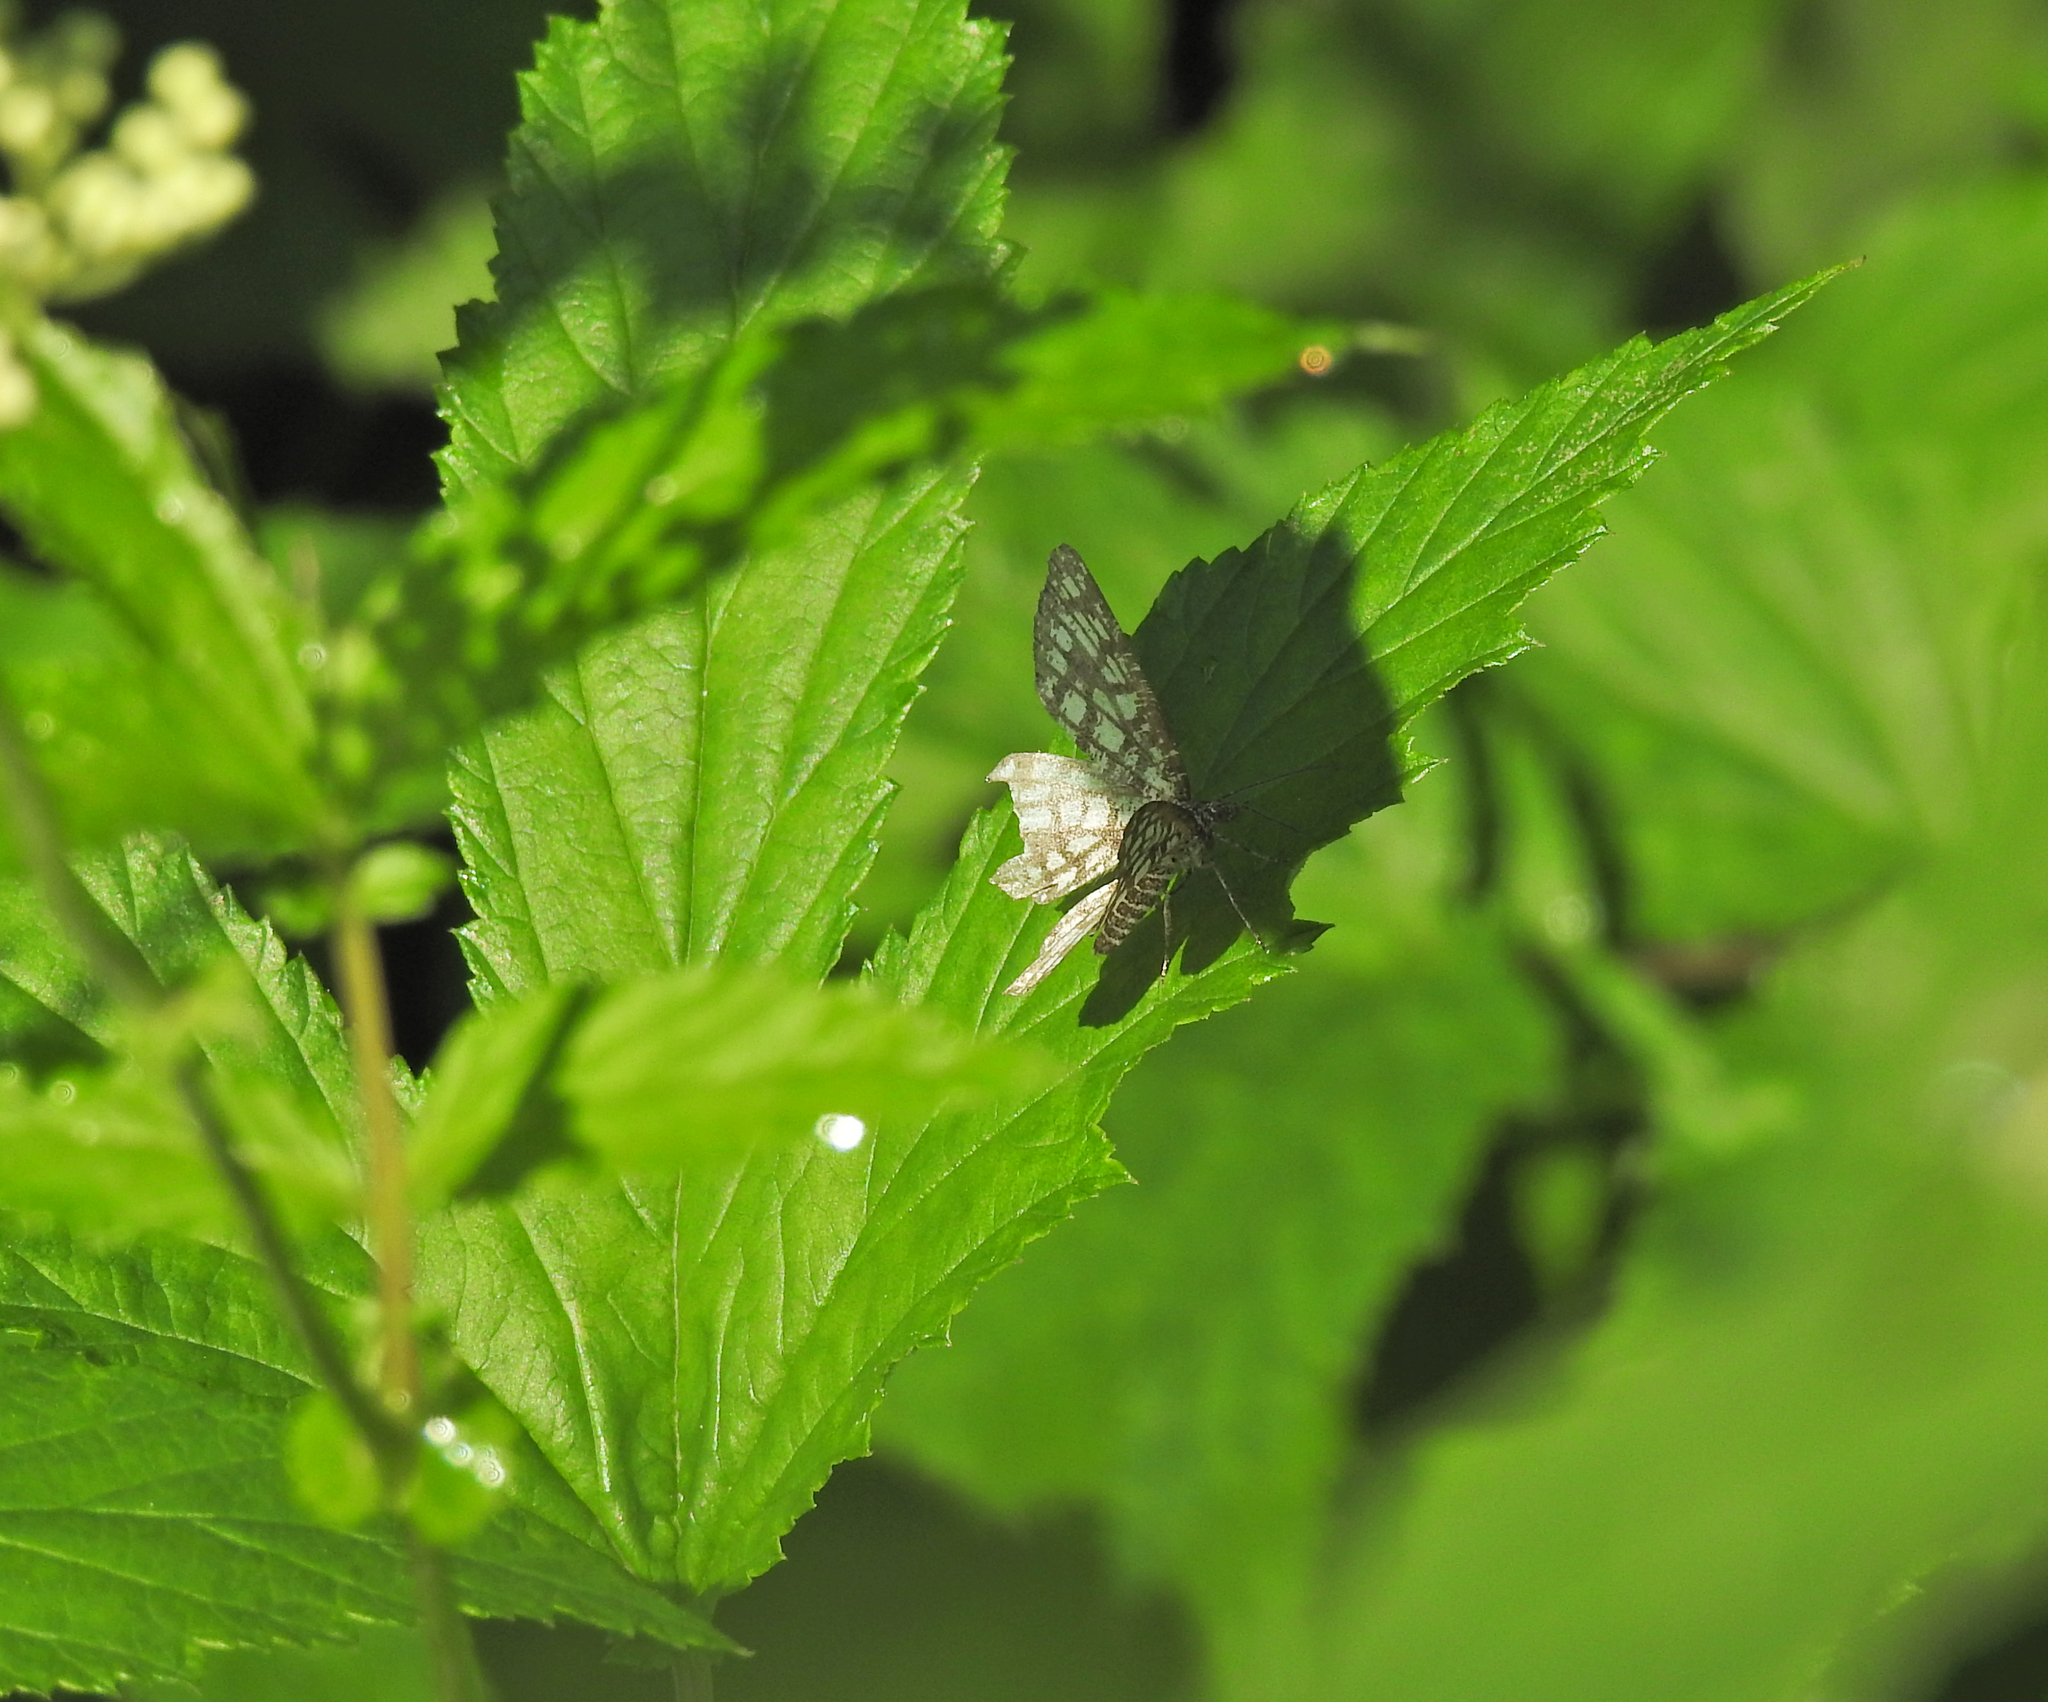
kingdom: Animalia
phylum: Arthropoda
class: Insecta
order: Lepidoptera
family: Geometridae
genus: Chiasmia
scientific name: Chiasmia clathrata
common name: Latticed heath
